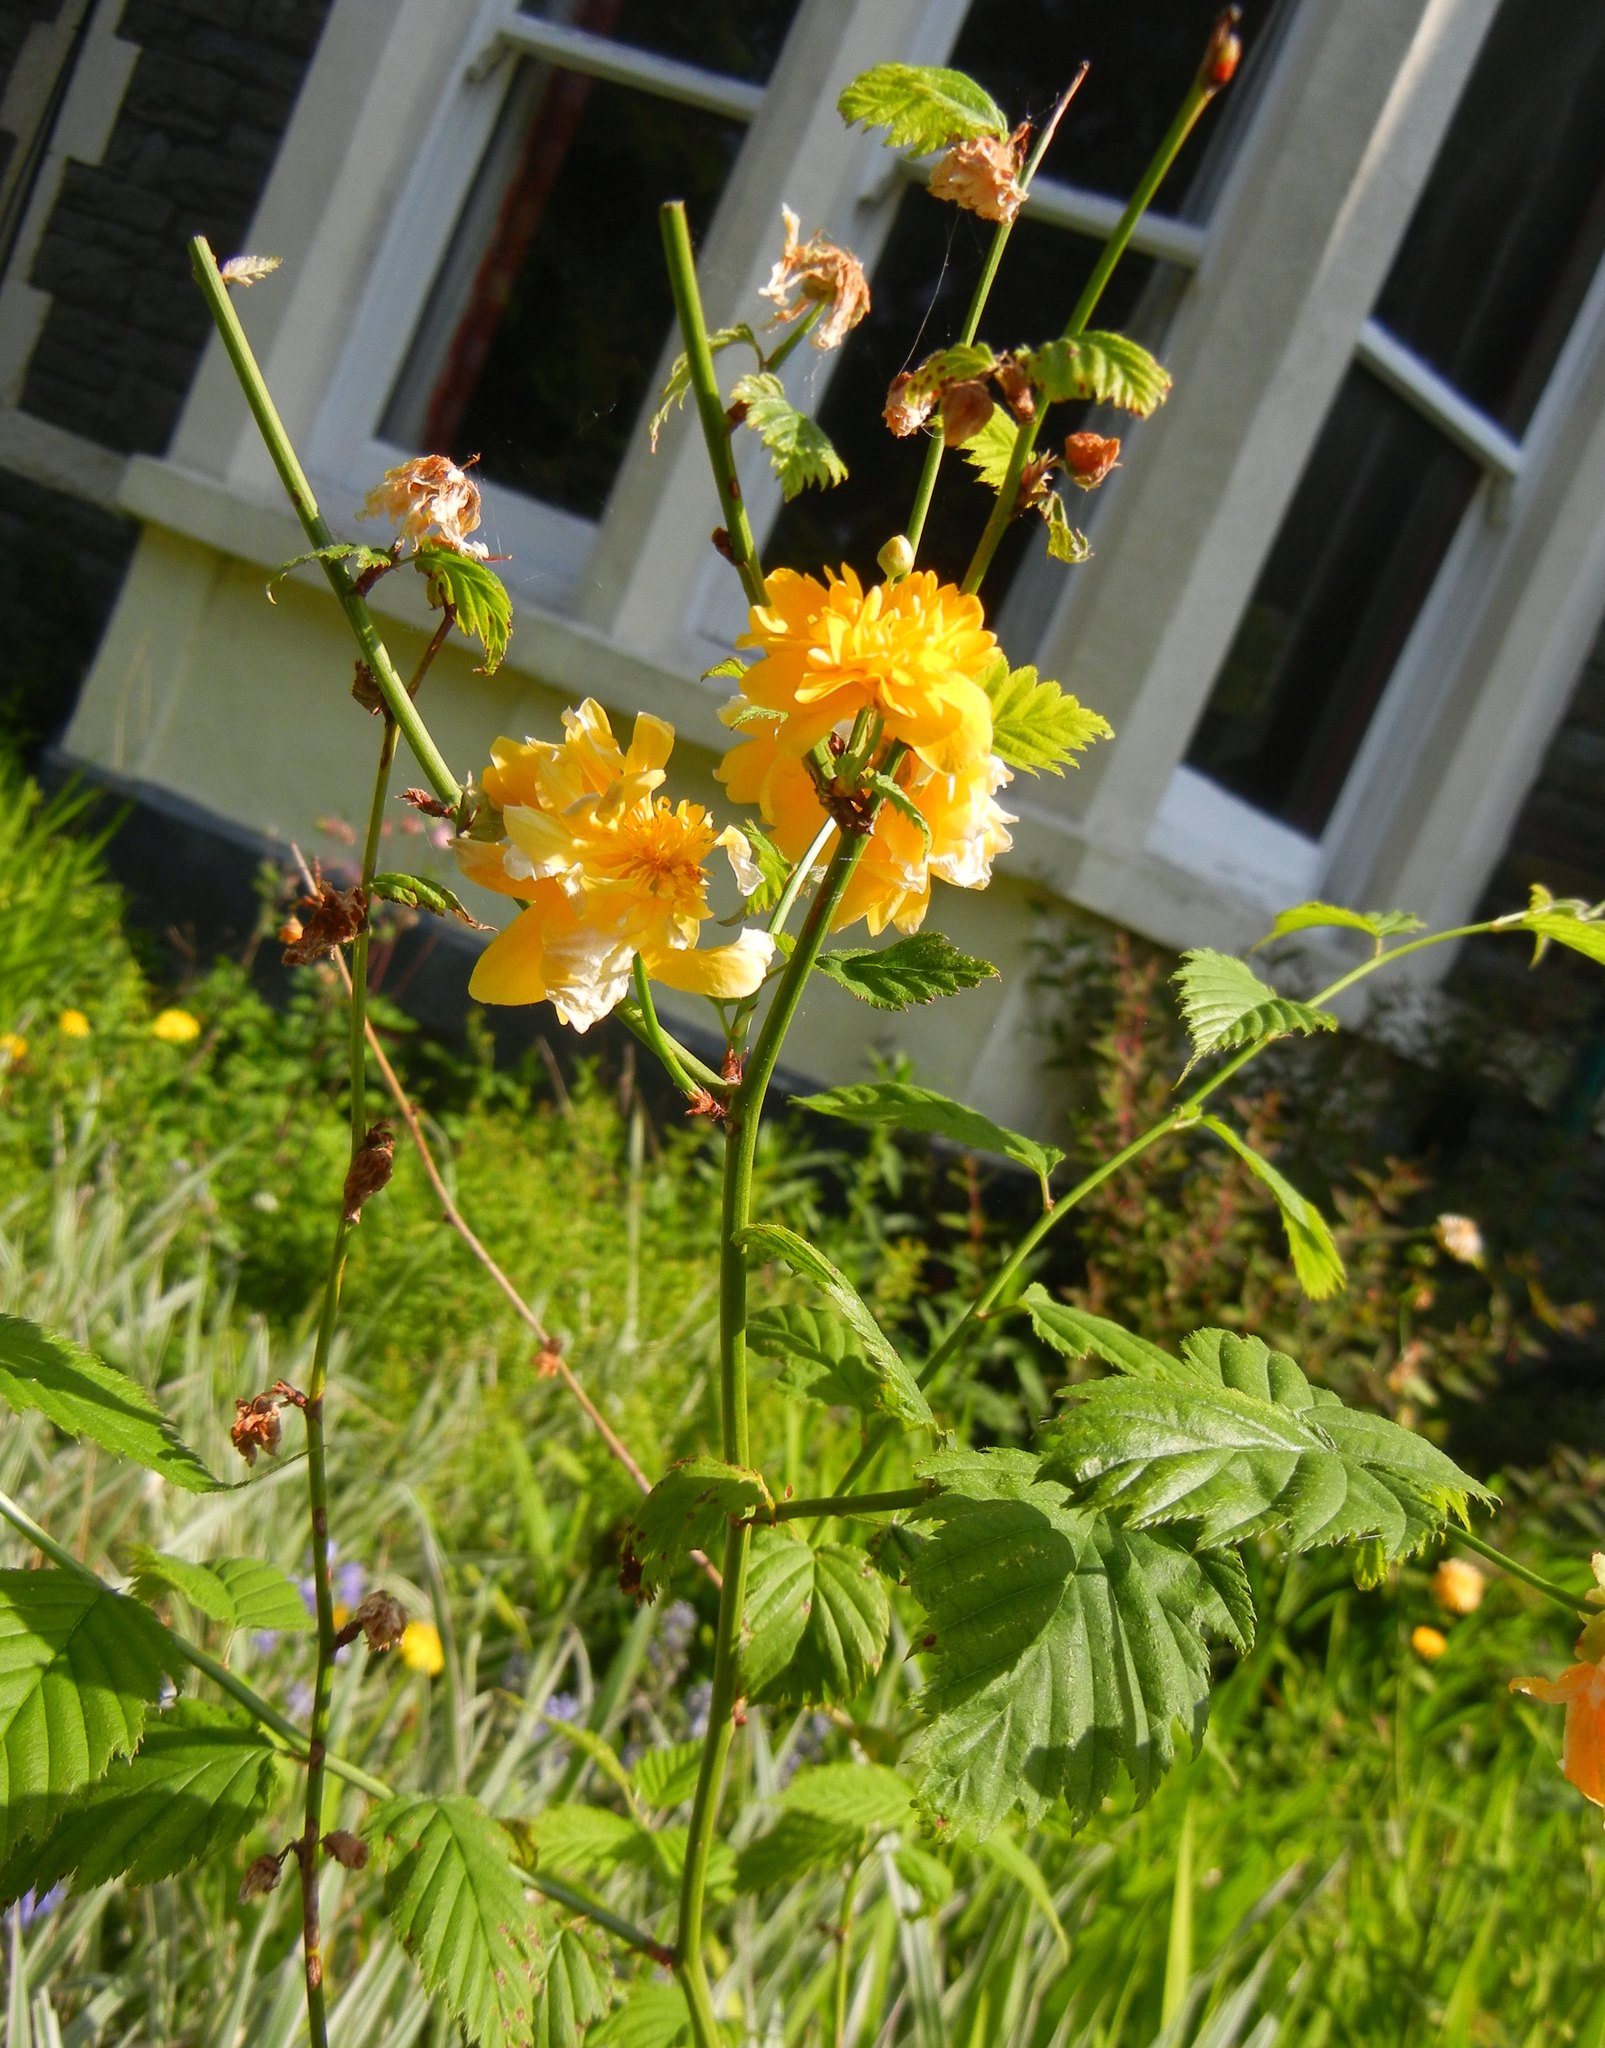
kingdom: Plantae
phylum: Tracheophyta
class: Magnoliopsida
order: Rosales
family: Rosaceae
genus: Kerria
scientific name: Kerria japonica
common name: Japanese kerria
